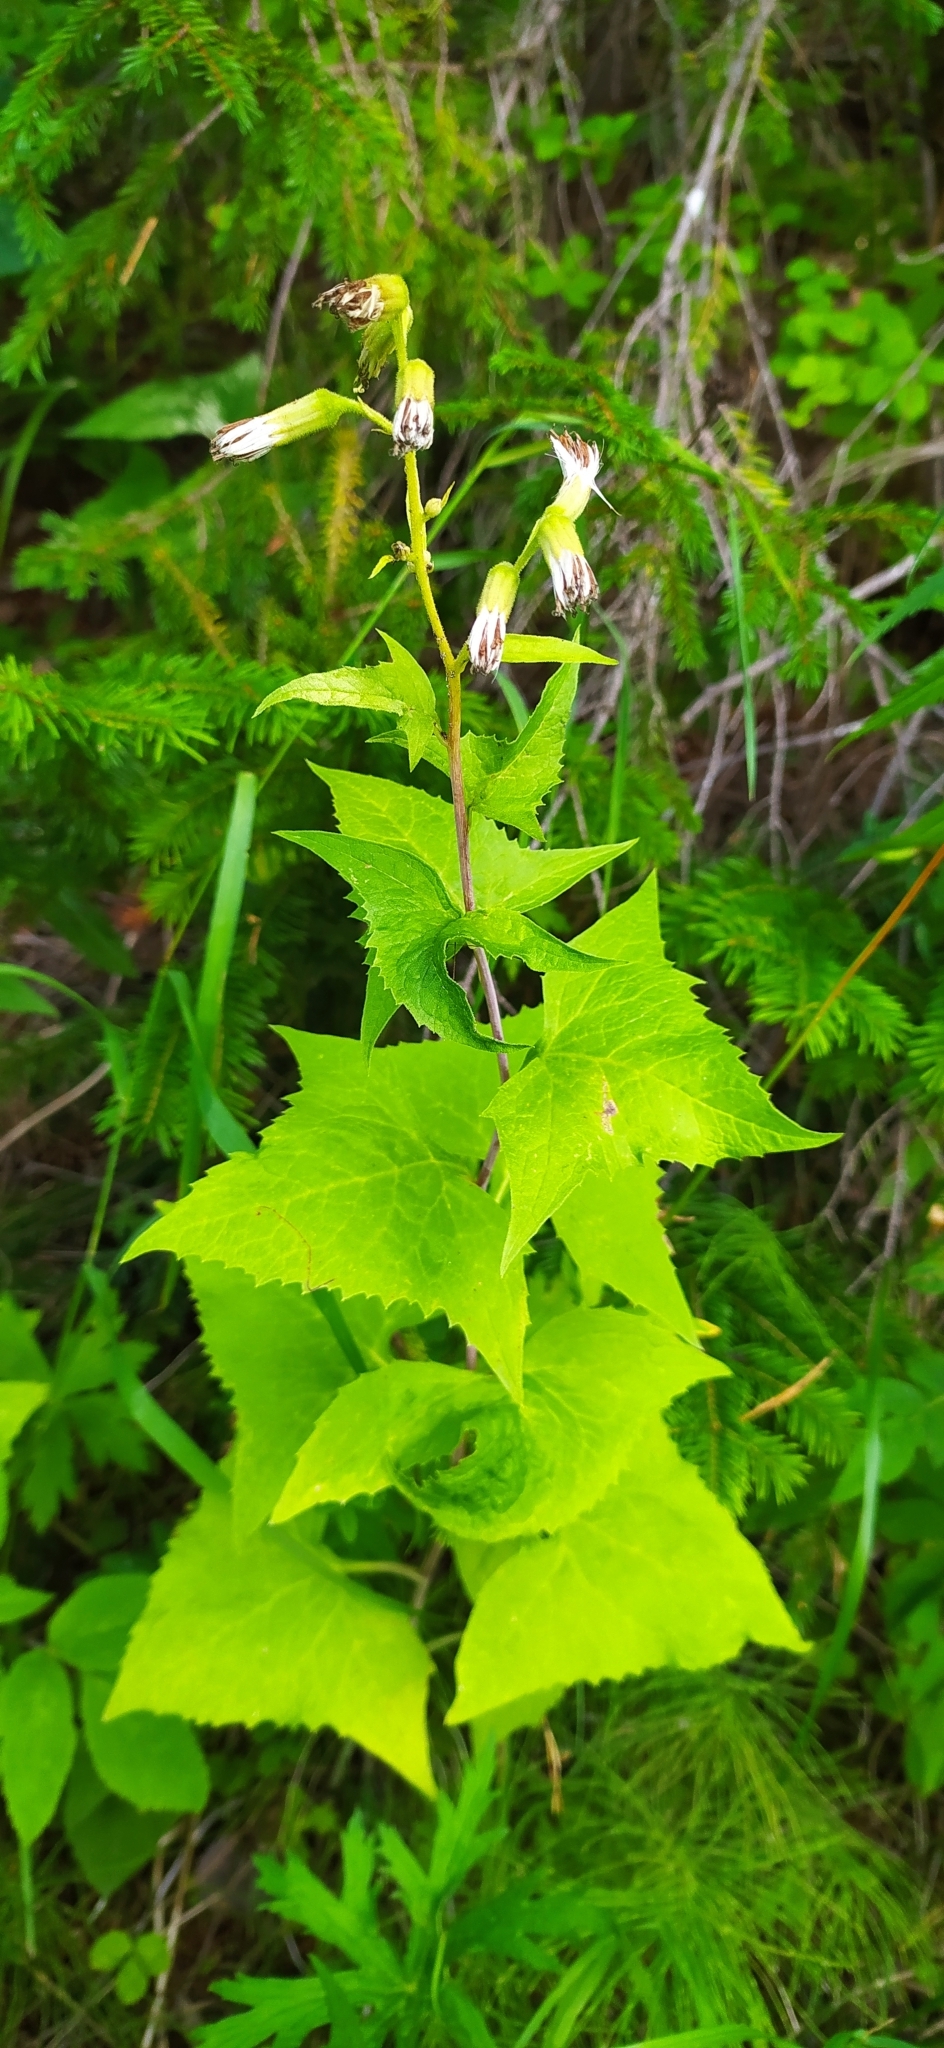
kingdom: Plantae
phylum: Tracheophyta
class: Magnoliopsida
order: Asterales
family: Asteraceae
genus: Parasenecio
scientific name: Parasenecio hastatus
